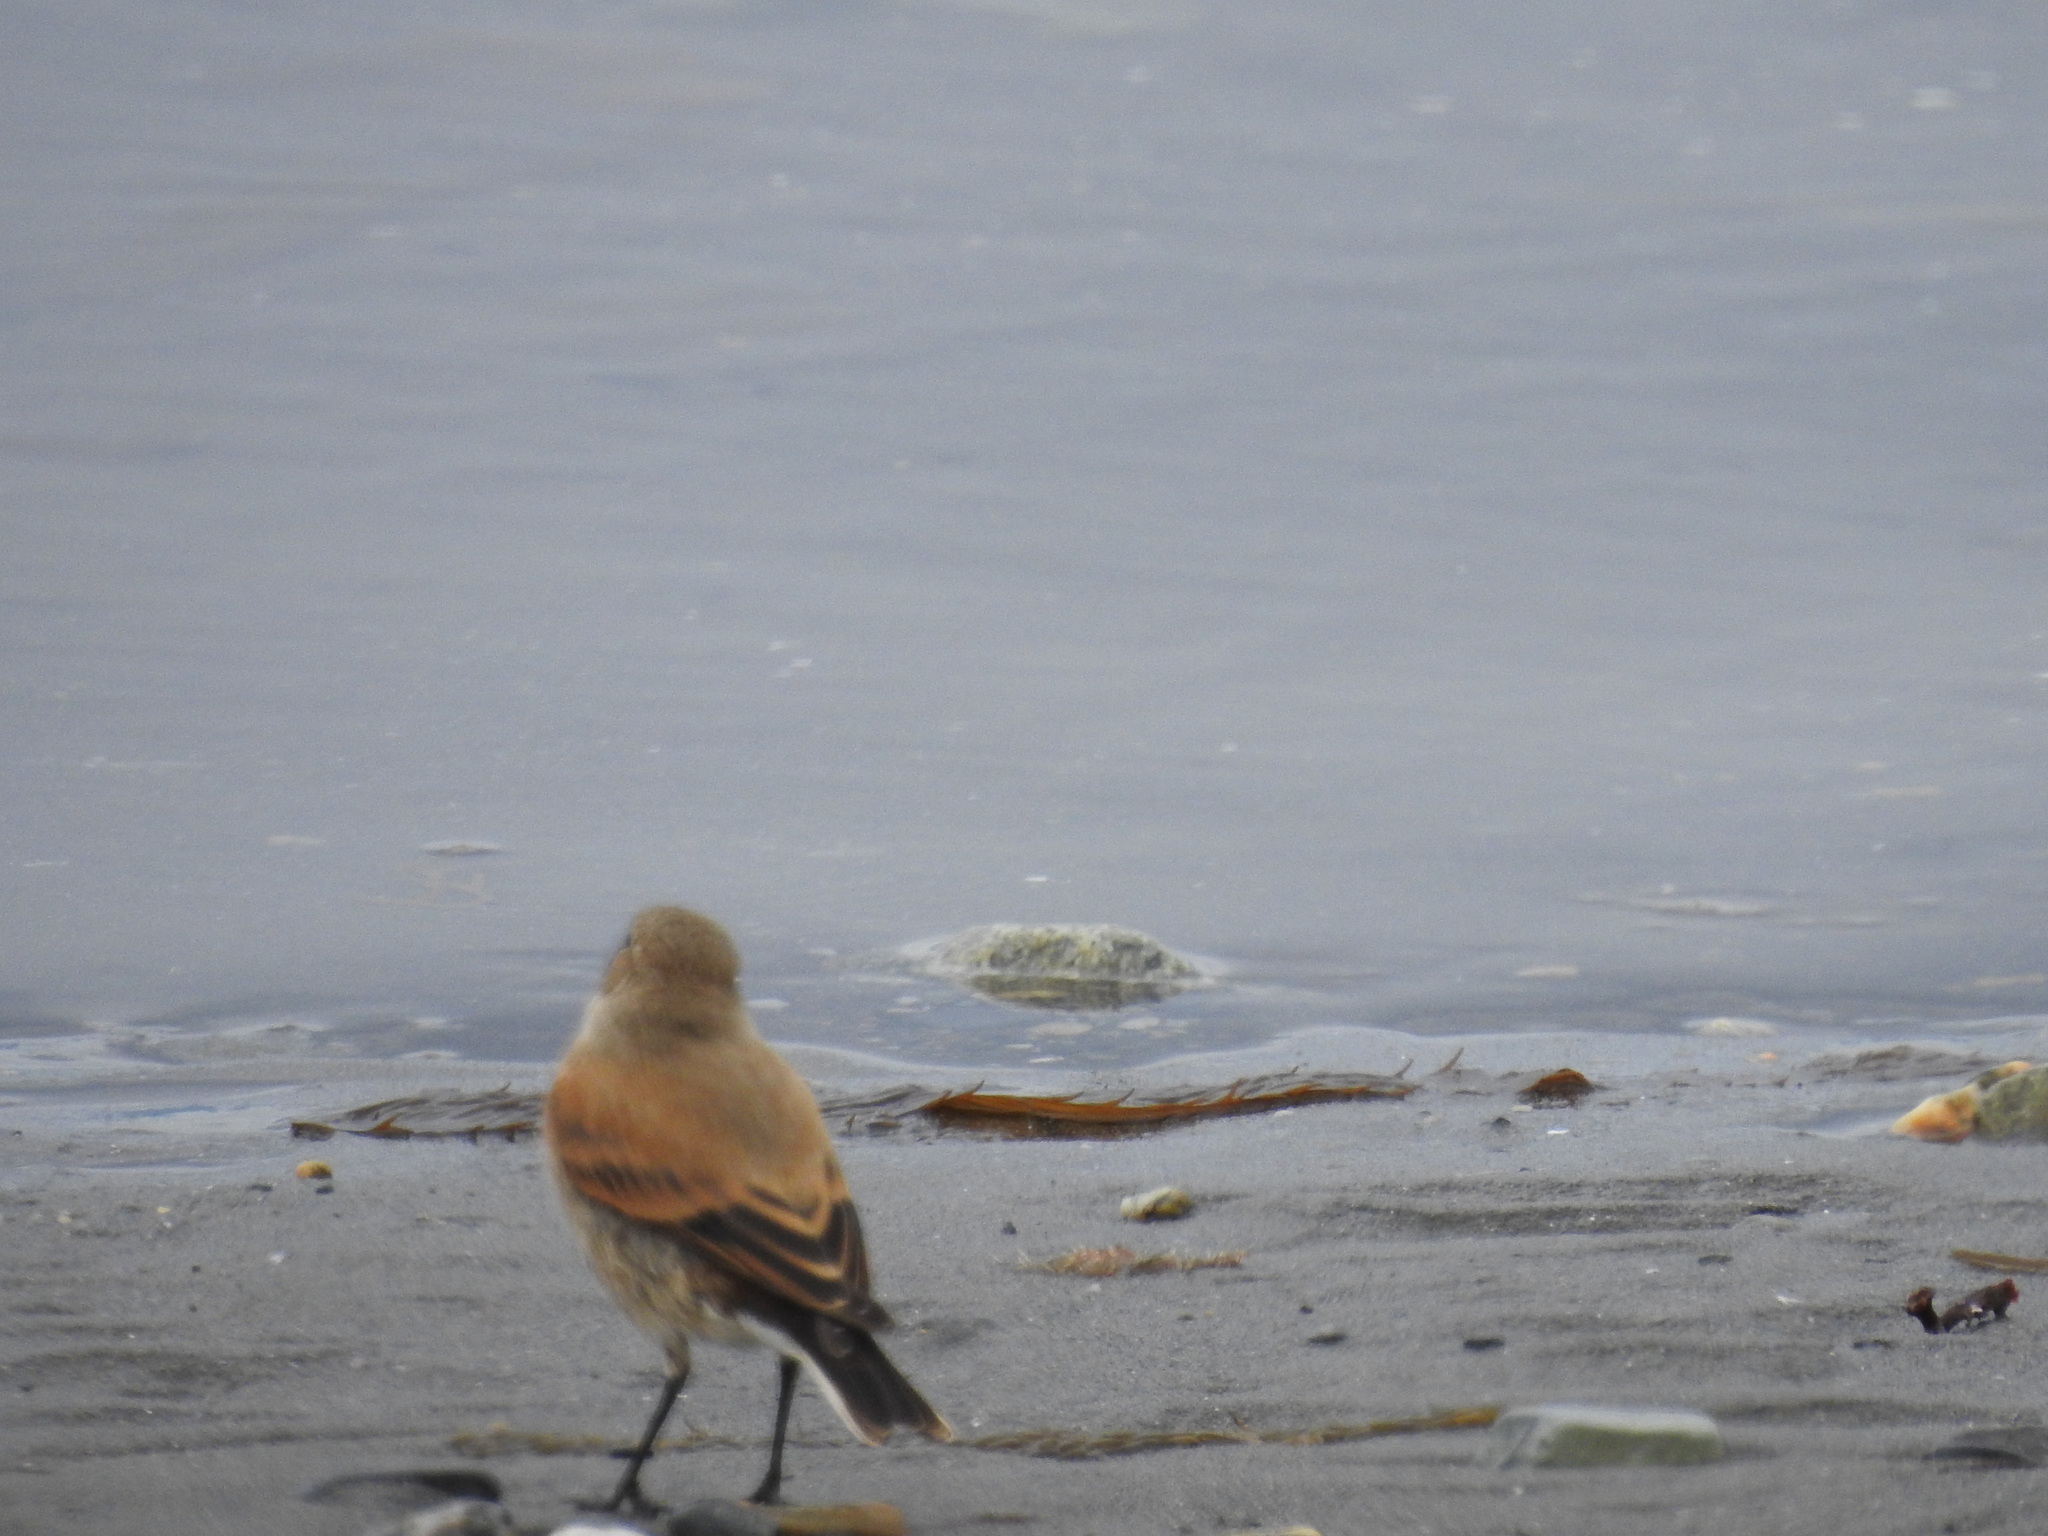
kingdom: Animalia
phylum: Chordata
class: Aves
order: Passeriformes
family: Tyrannidae
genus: Lessonia
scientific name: Lessonia rufa
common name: Austral negrito
